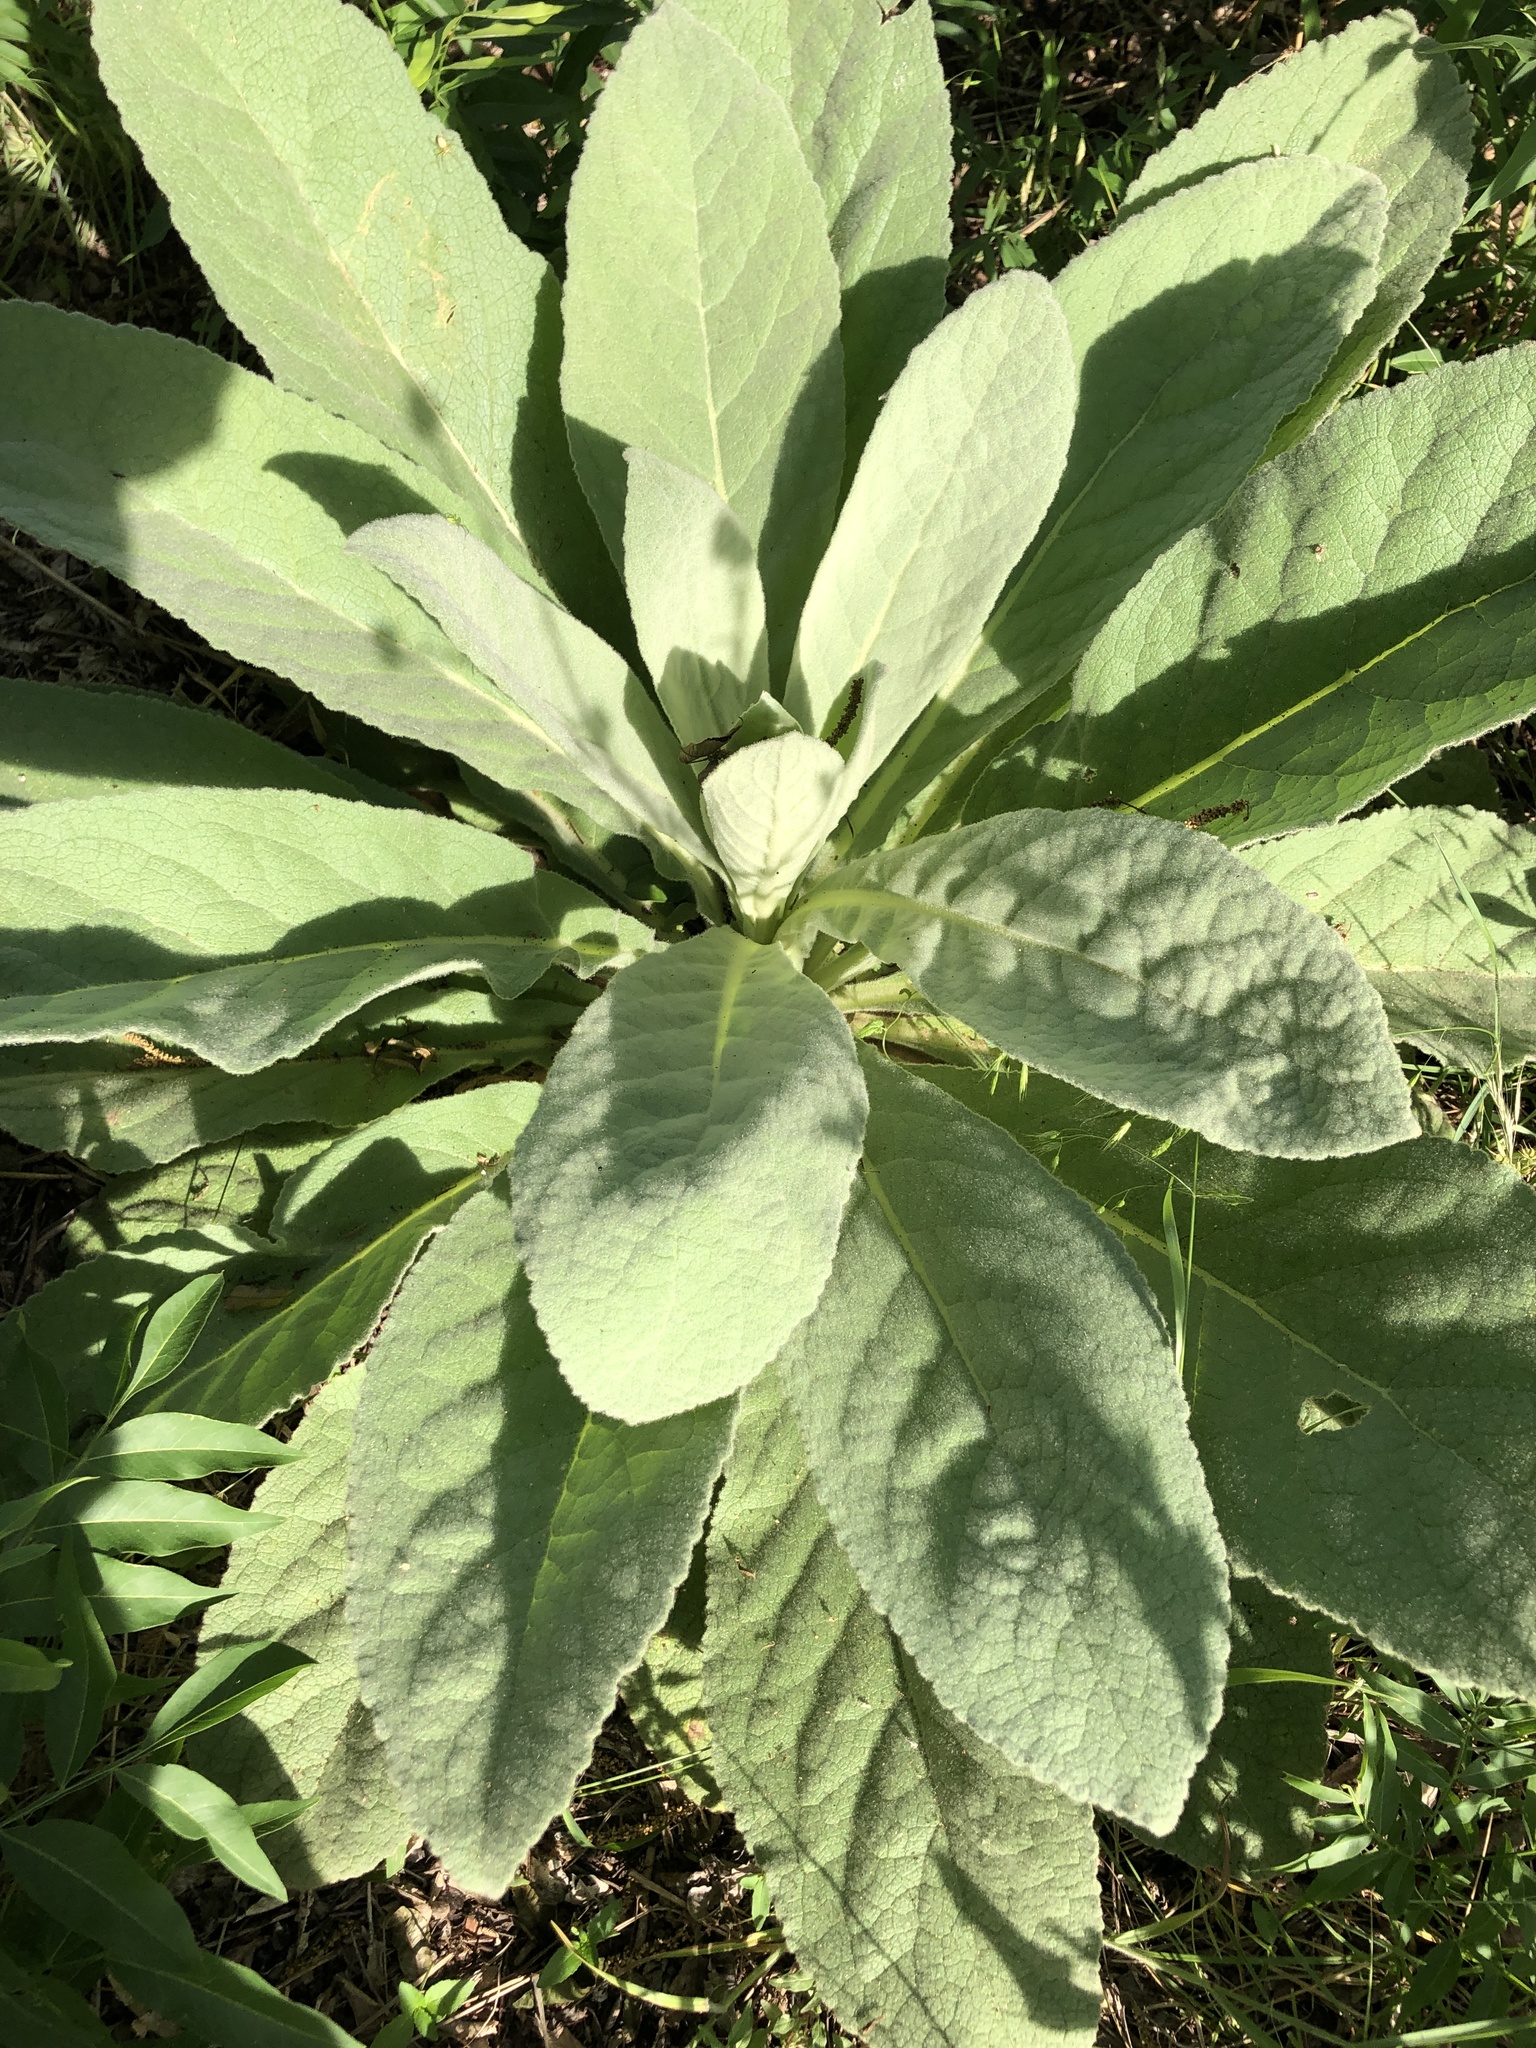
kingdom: Plantae
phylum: Tracheophyta
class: Magnoliopsida
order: Lamiales
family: Scrophulariaceae
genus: Verbascum
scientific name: Verbascum thapsus
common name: Common mullein
